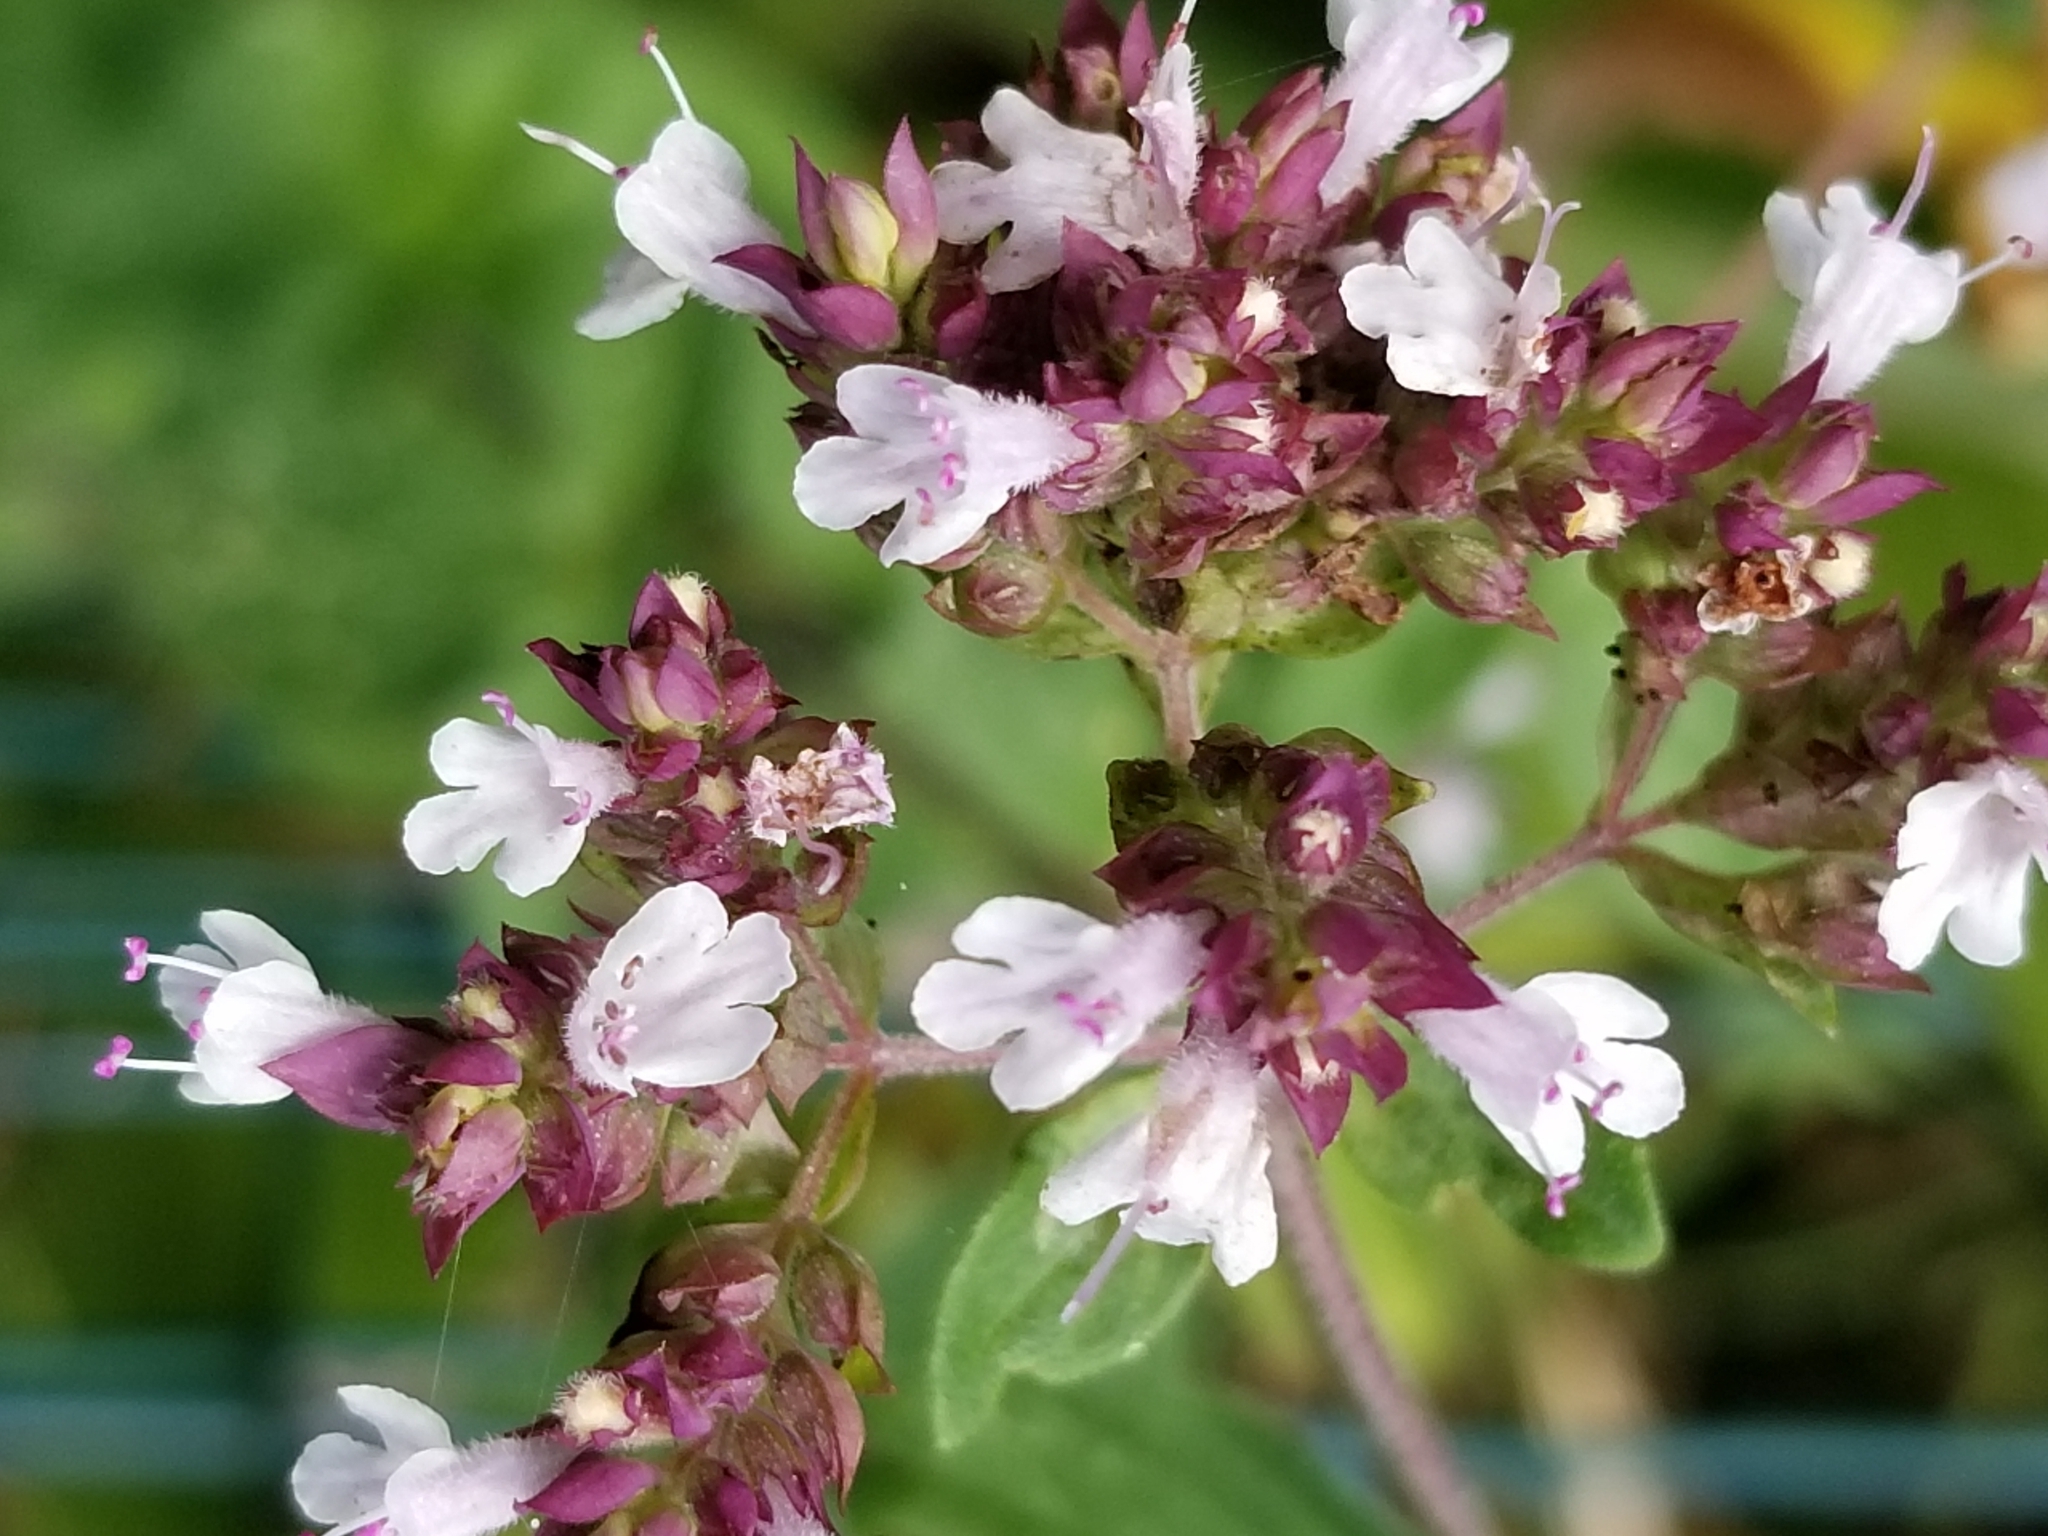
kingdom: Plantae
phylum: Tracheophyta
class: Magnoliopsida
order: Lamiales
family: Lamiaceae
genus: Origanum
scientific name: Origanum vulgare
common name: Wild marjoram
